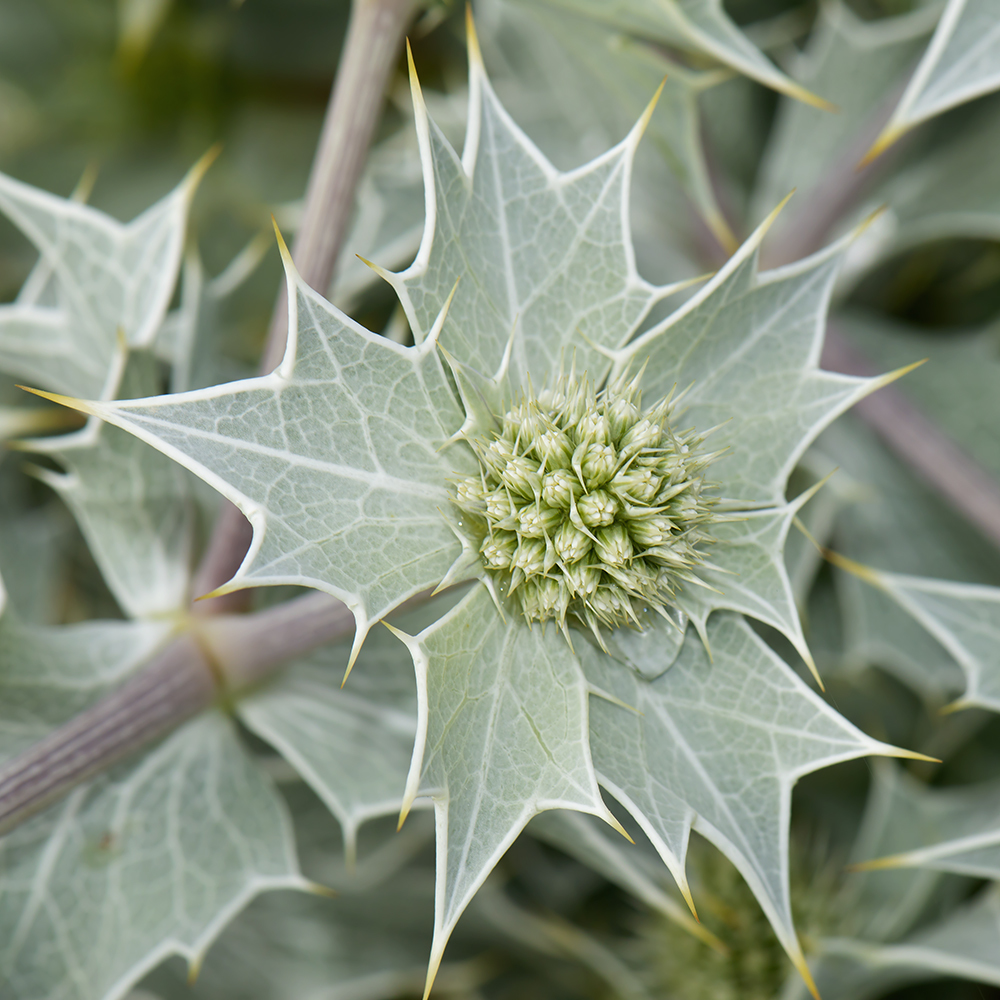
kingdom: Plantae
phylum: Tracheophyta
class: Magnoliopsida
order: Apiales
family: Apiaceae
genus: Eryngium
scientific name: Eryngium maritimum
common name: Sea-holly
